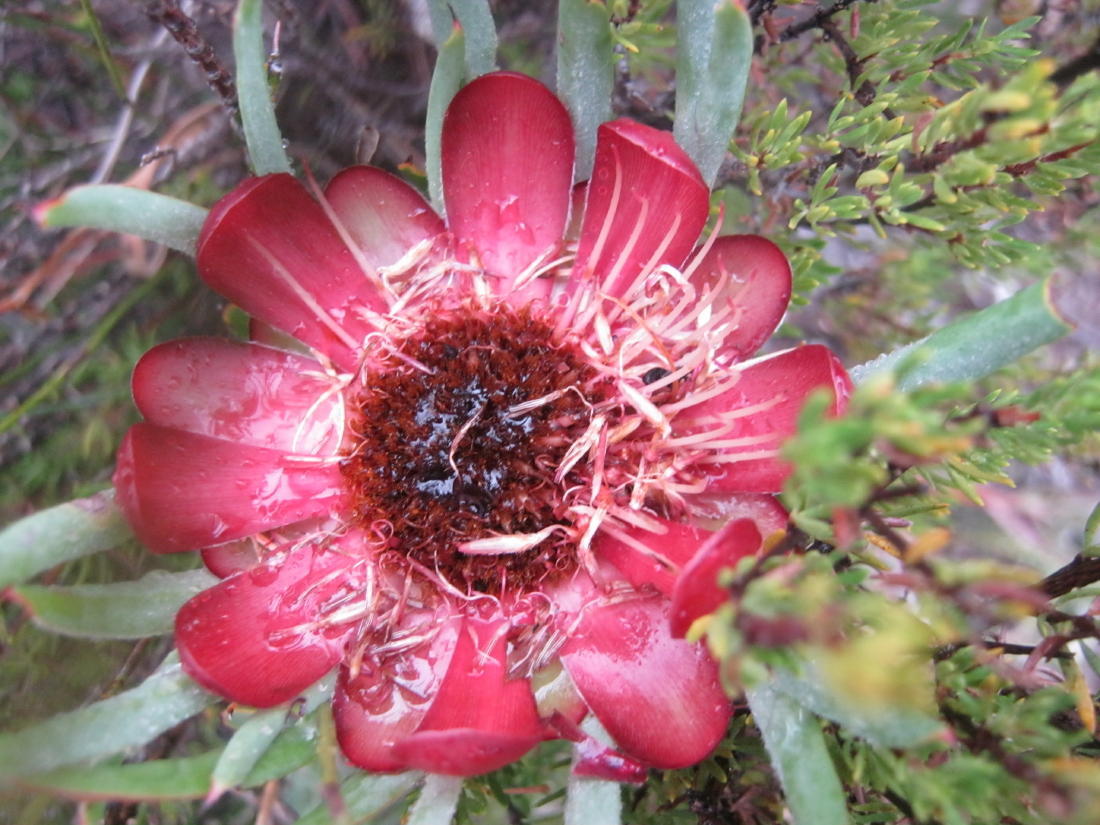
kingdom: Plantae
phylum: Tracheophyta
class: Magnoliopsida
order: Proteales
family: Proteaceae
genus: Protea
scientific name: Protea canaliculata
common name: Groove-leaf sugarbush
